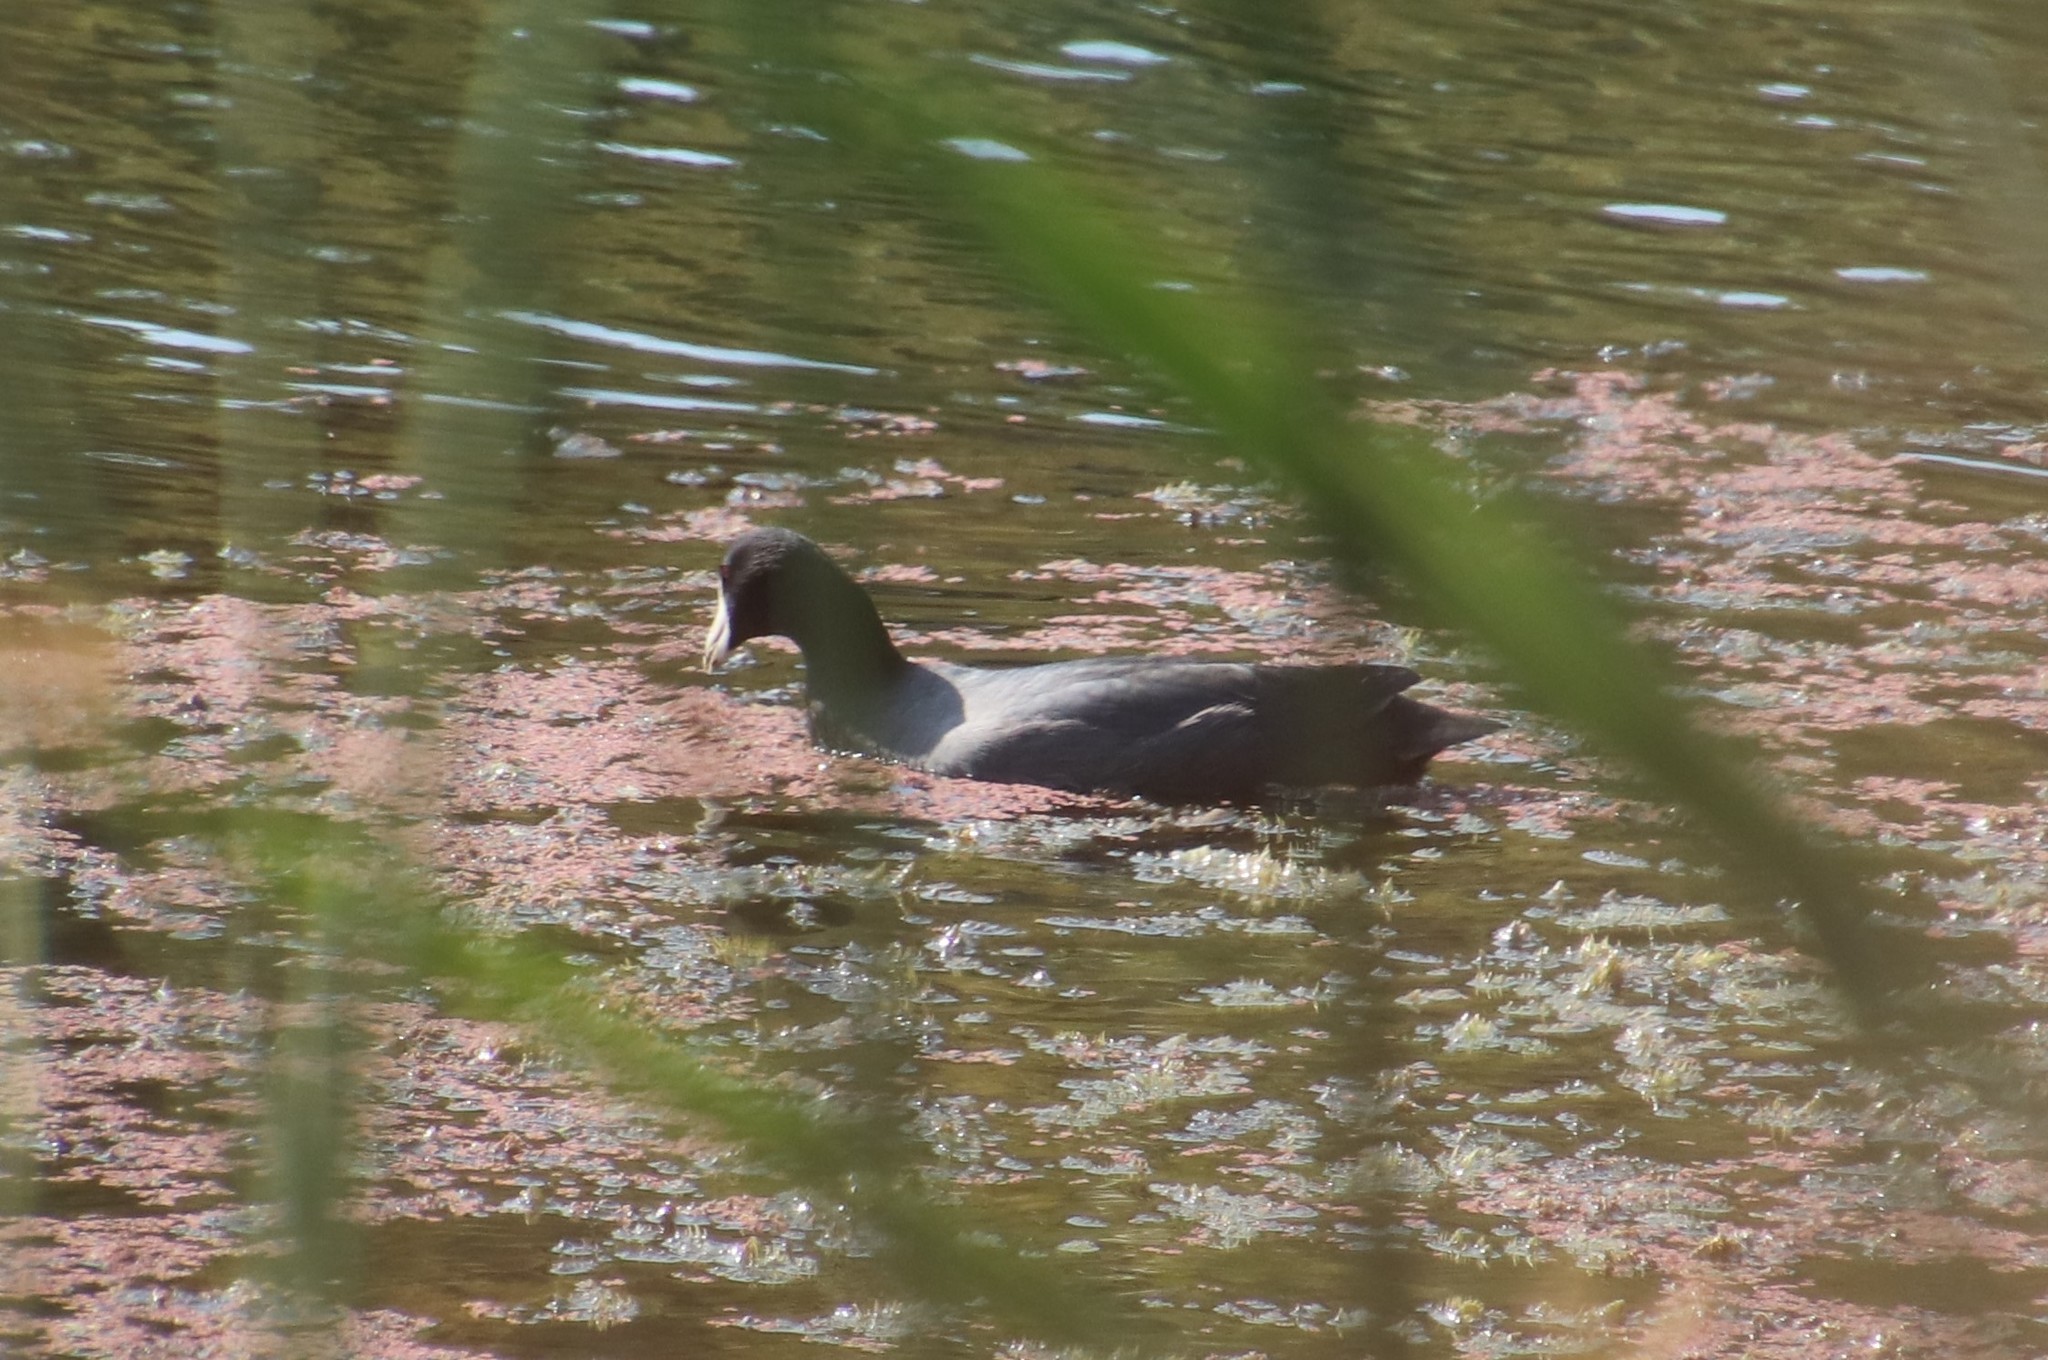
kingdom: Animalia
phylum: Chordata
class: Aves
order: Gruiformes
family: Rallidae
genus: Fulica
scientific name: Fulica americana
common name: American coot
